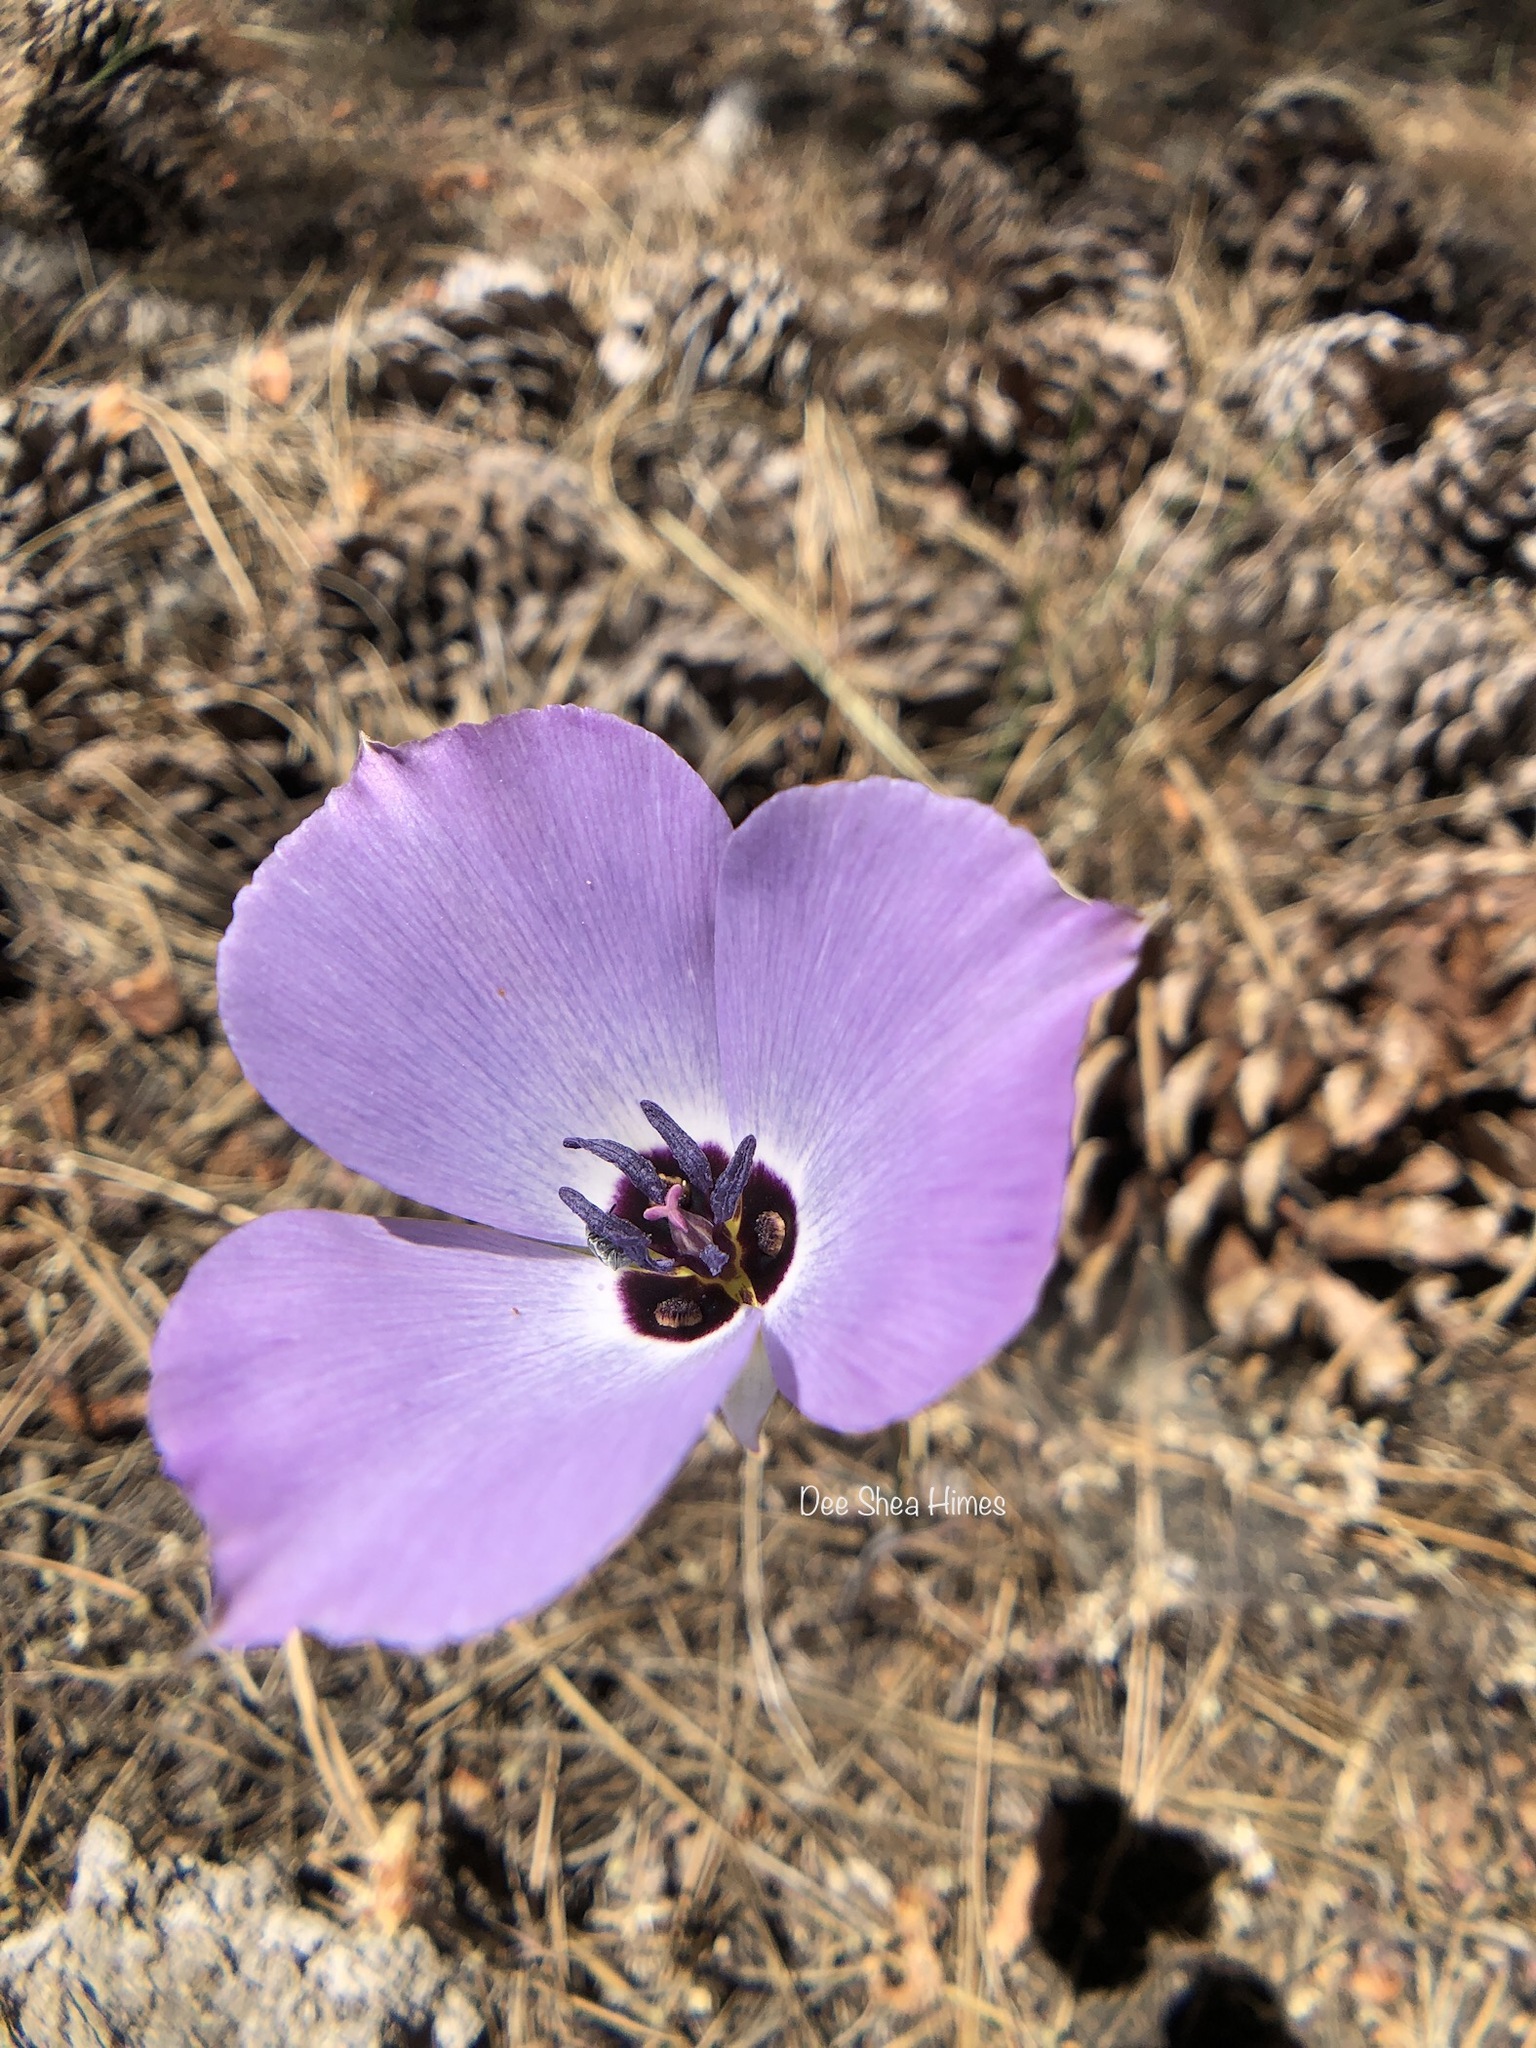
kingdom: Plantae
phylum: Tracheophyta
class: Liliopsida
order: Liliales
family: Liliaceae
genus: Calochortus
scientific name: Calochortus invenustus
